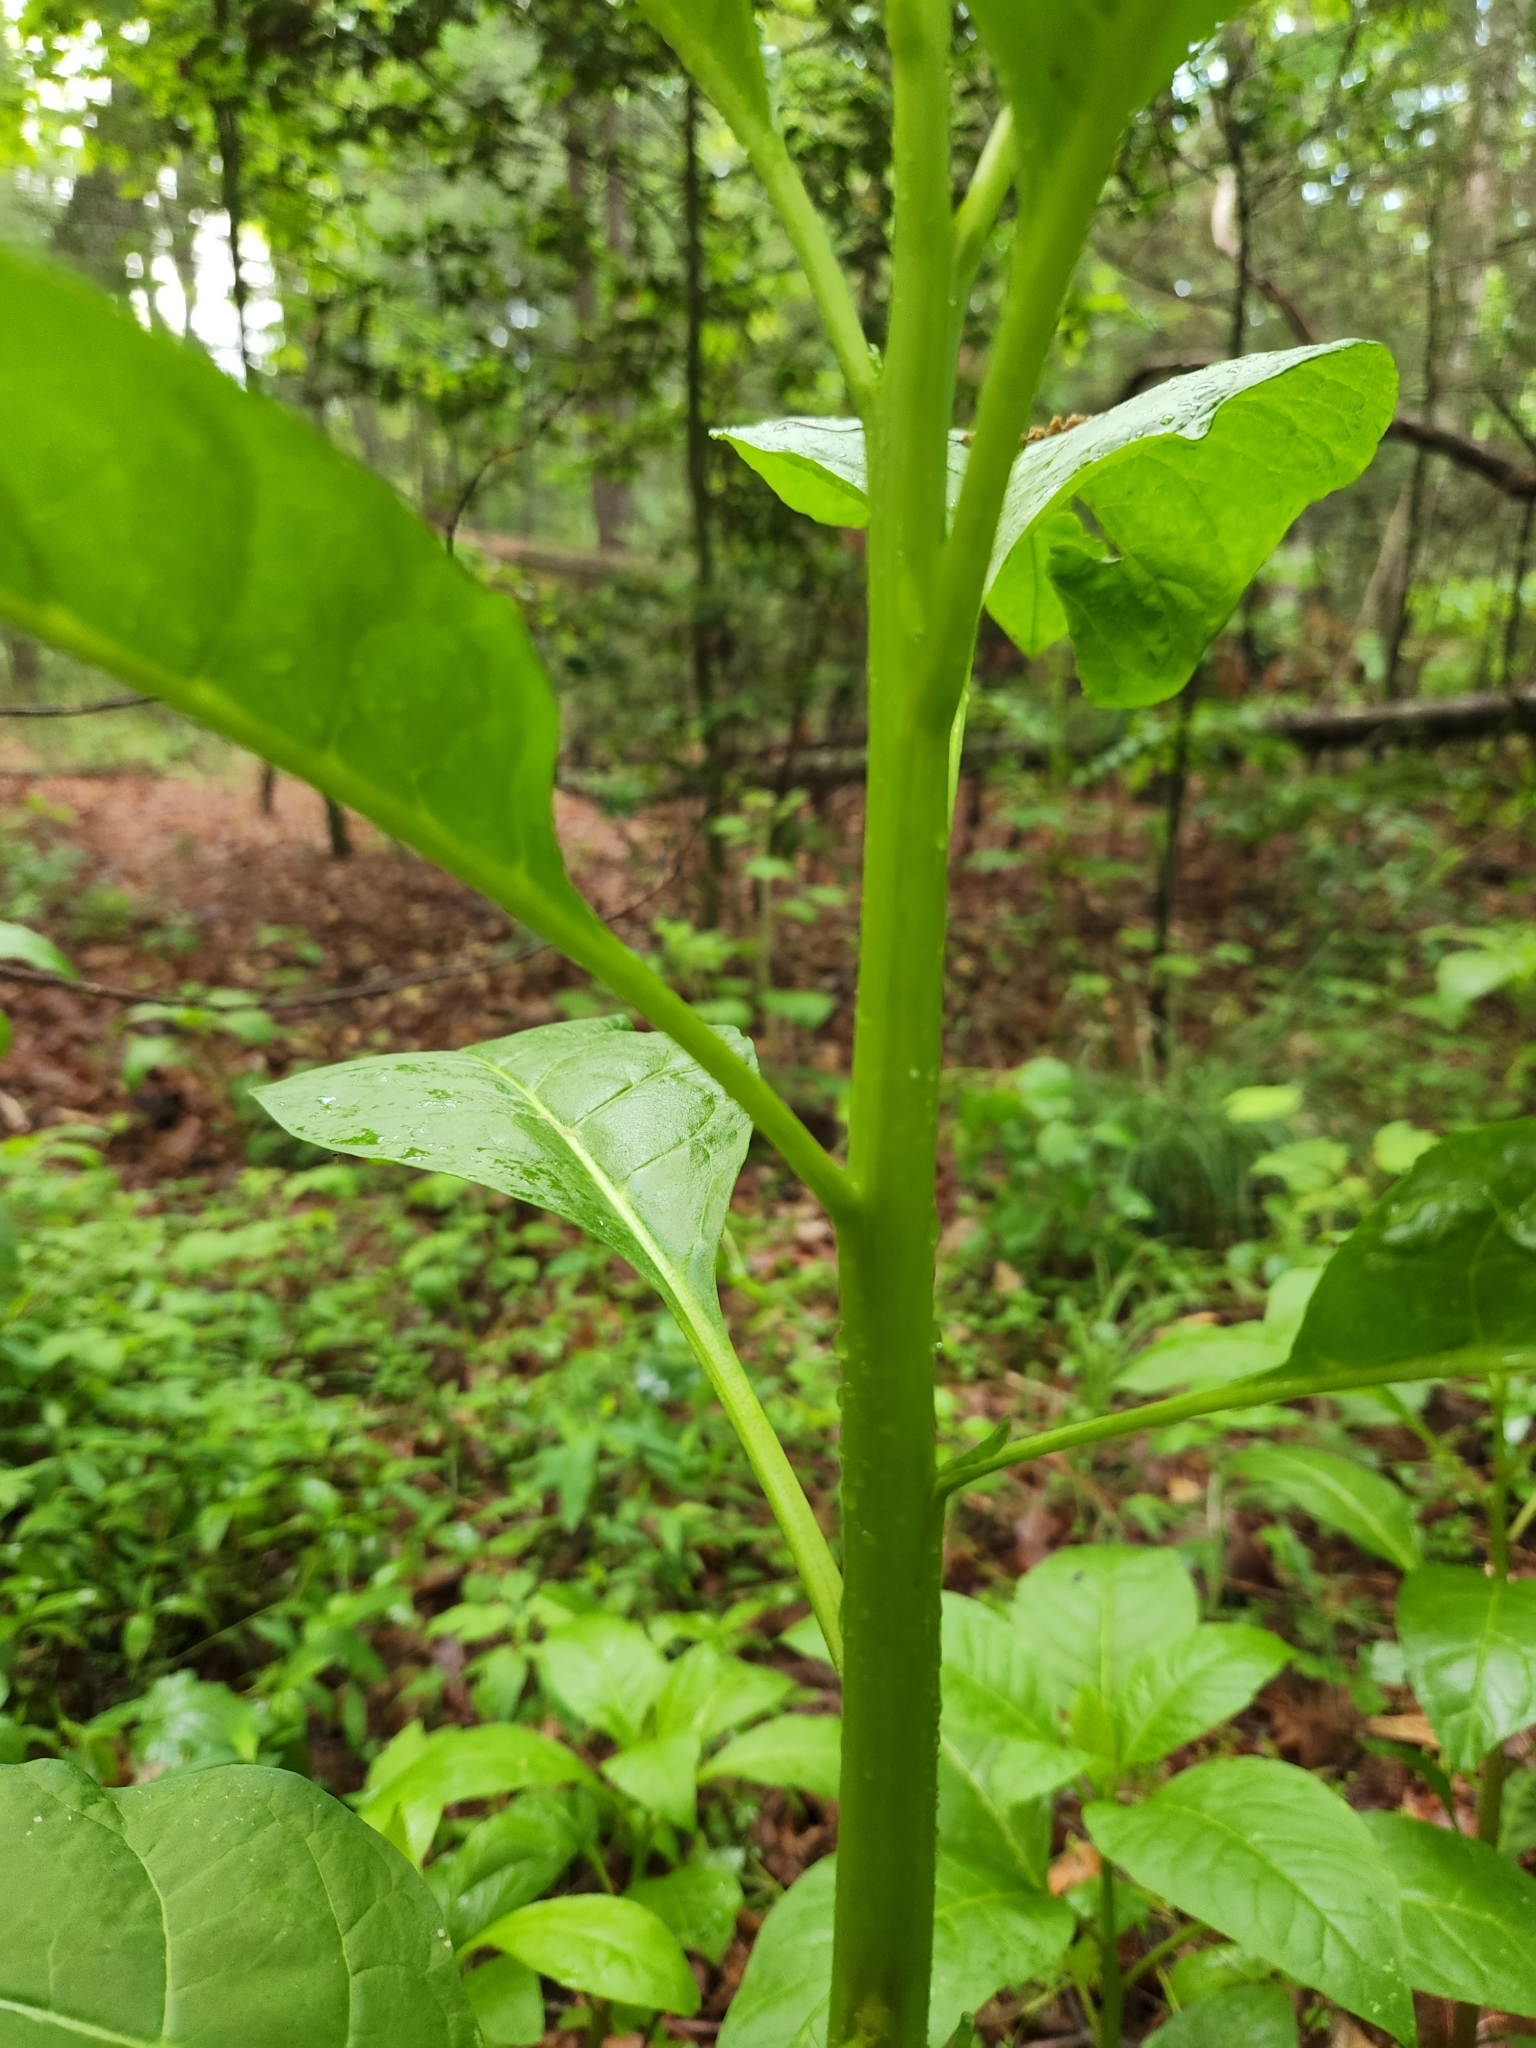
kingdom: Plantae
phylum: Tracheophyta
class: Magnoliopsida
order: Caryophyllales
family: Phytolaccaceae
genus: Phytolacca
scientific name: Phytolacca americana
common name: American pokeweed
